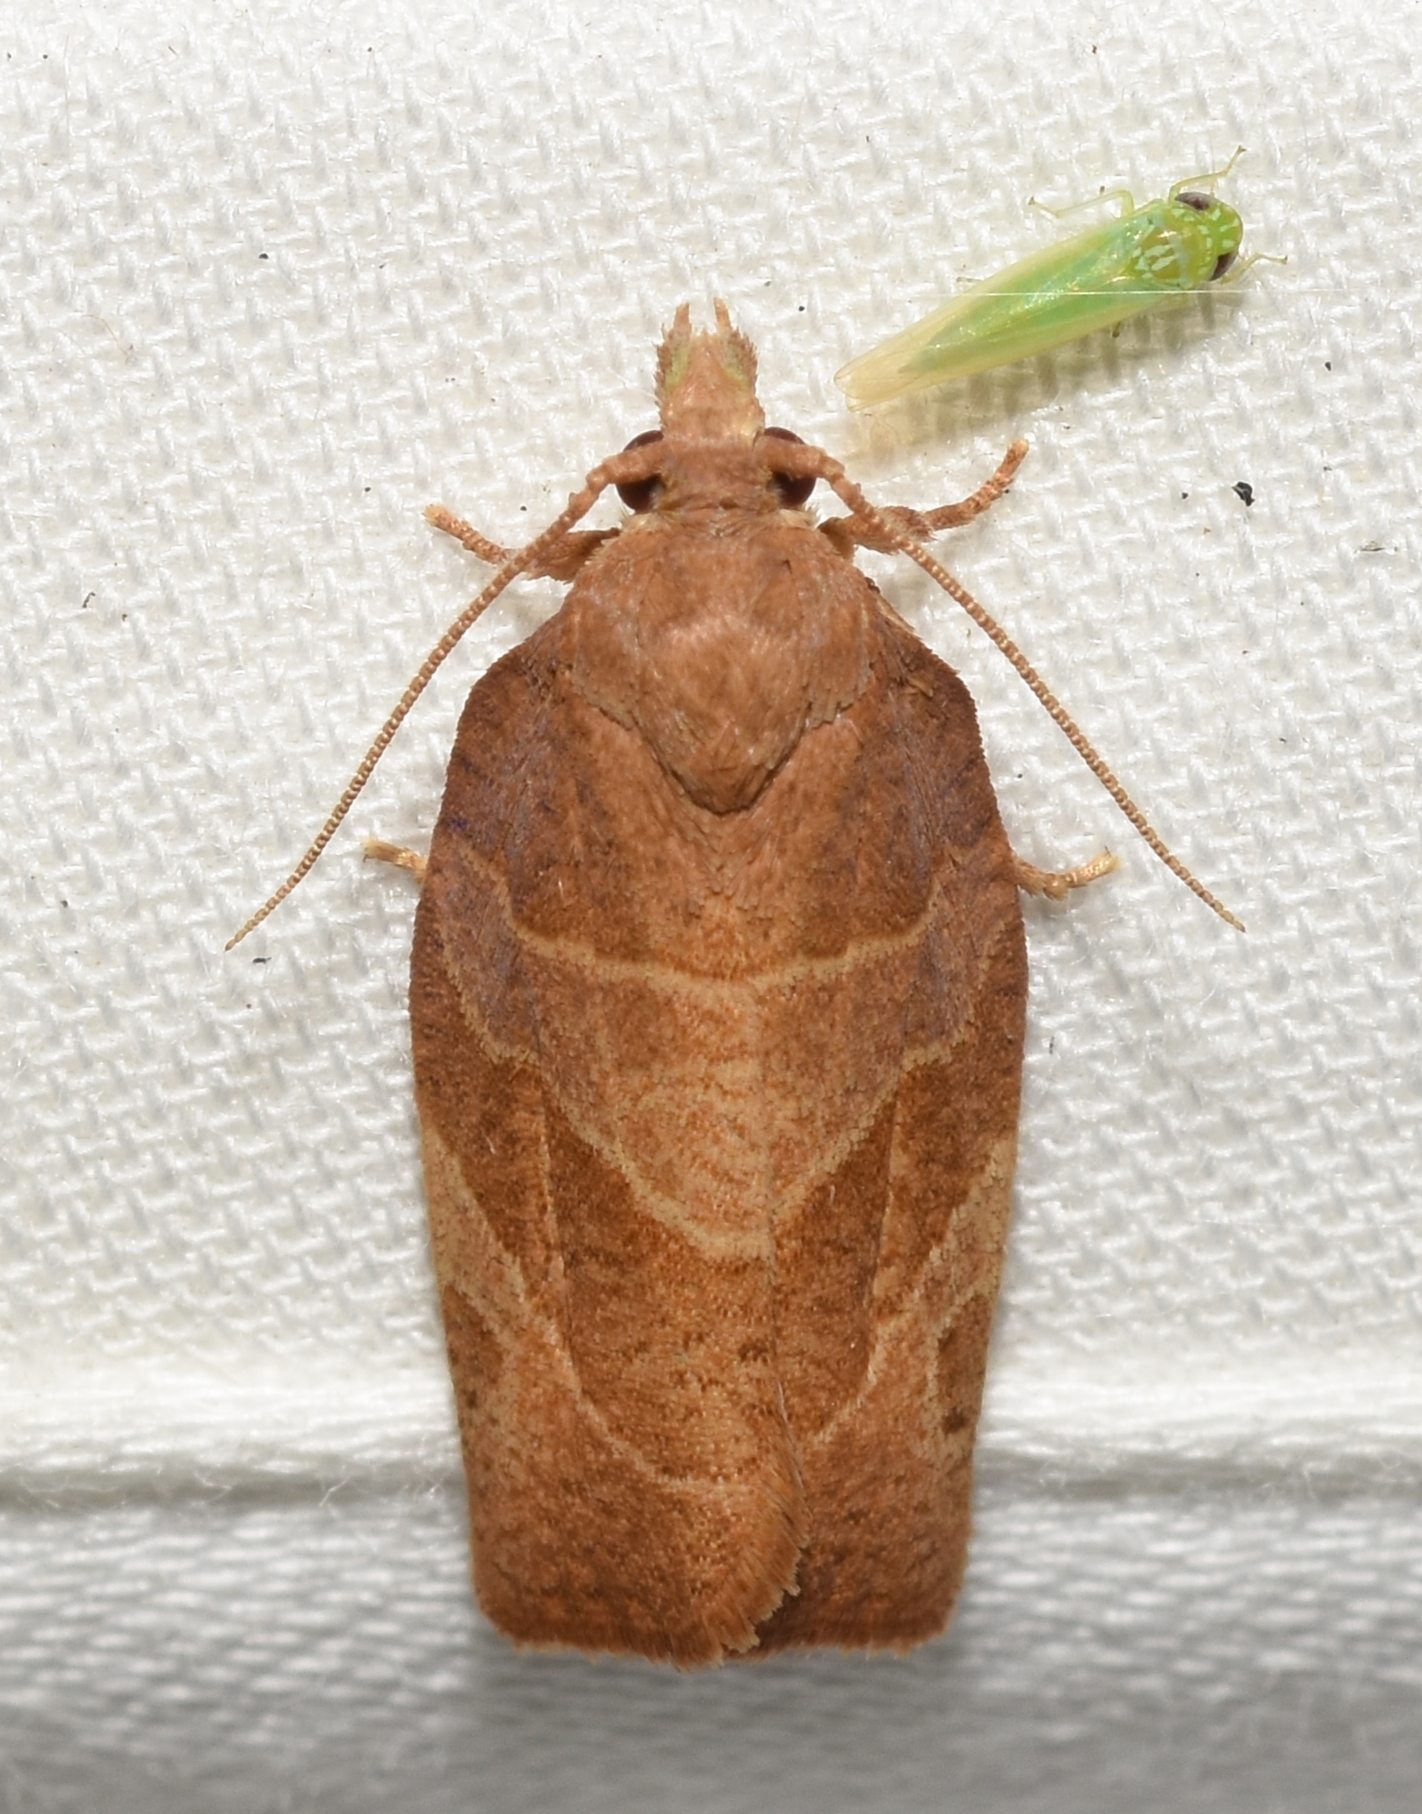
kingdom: Animalia
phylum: Arthropoda
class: Insecta
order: Lepidoptera
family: Tortricidae
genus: Pandemis
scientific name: Pandemis limitata
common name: Three-lined leafroller moth
